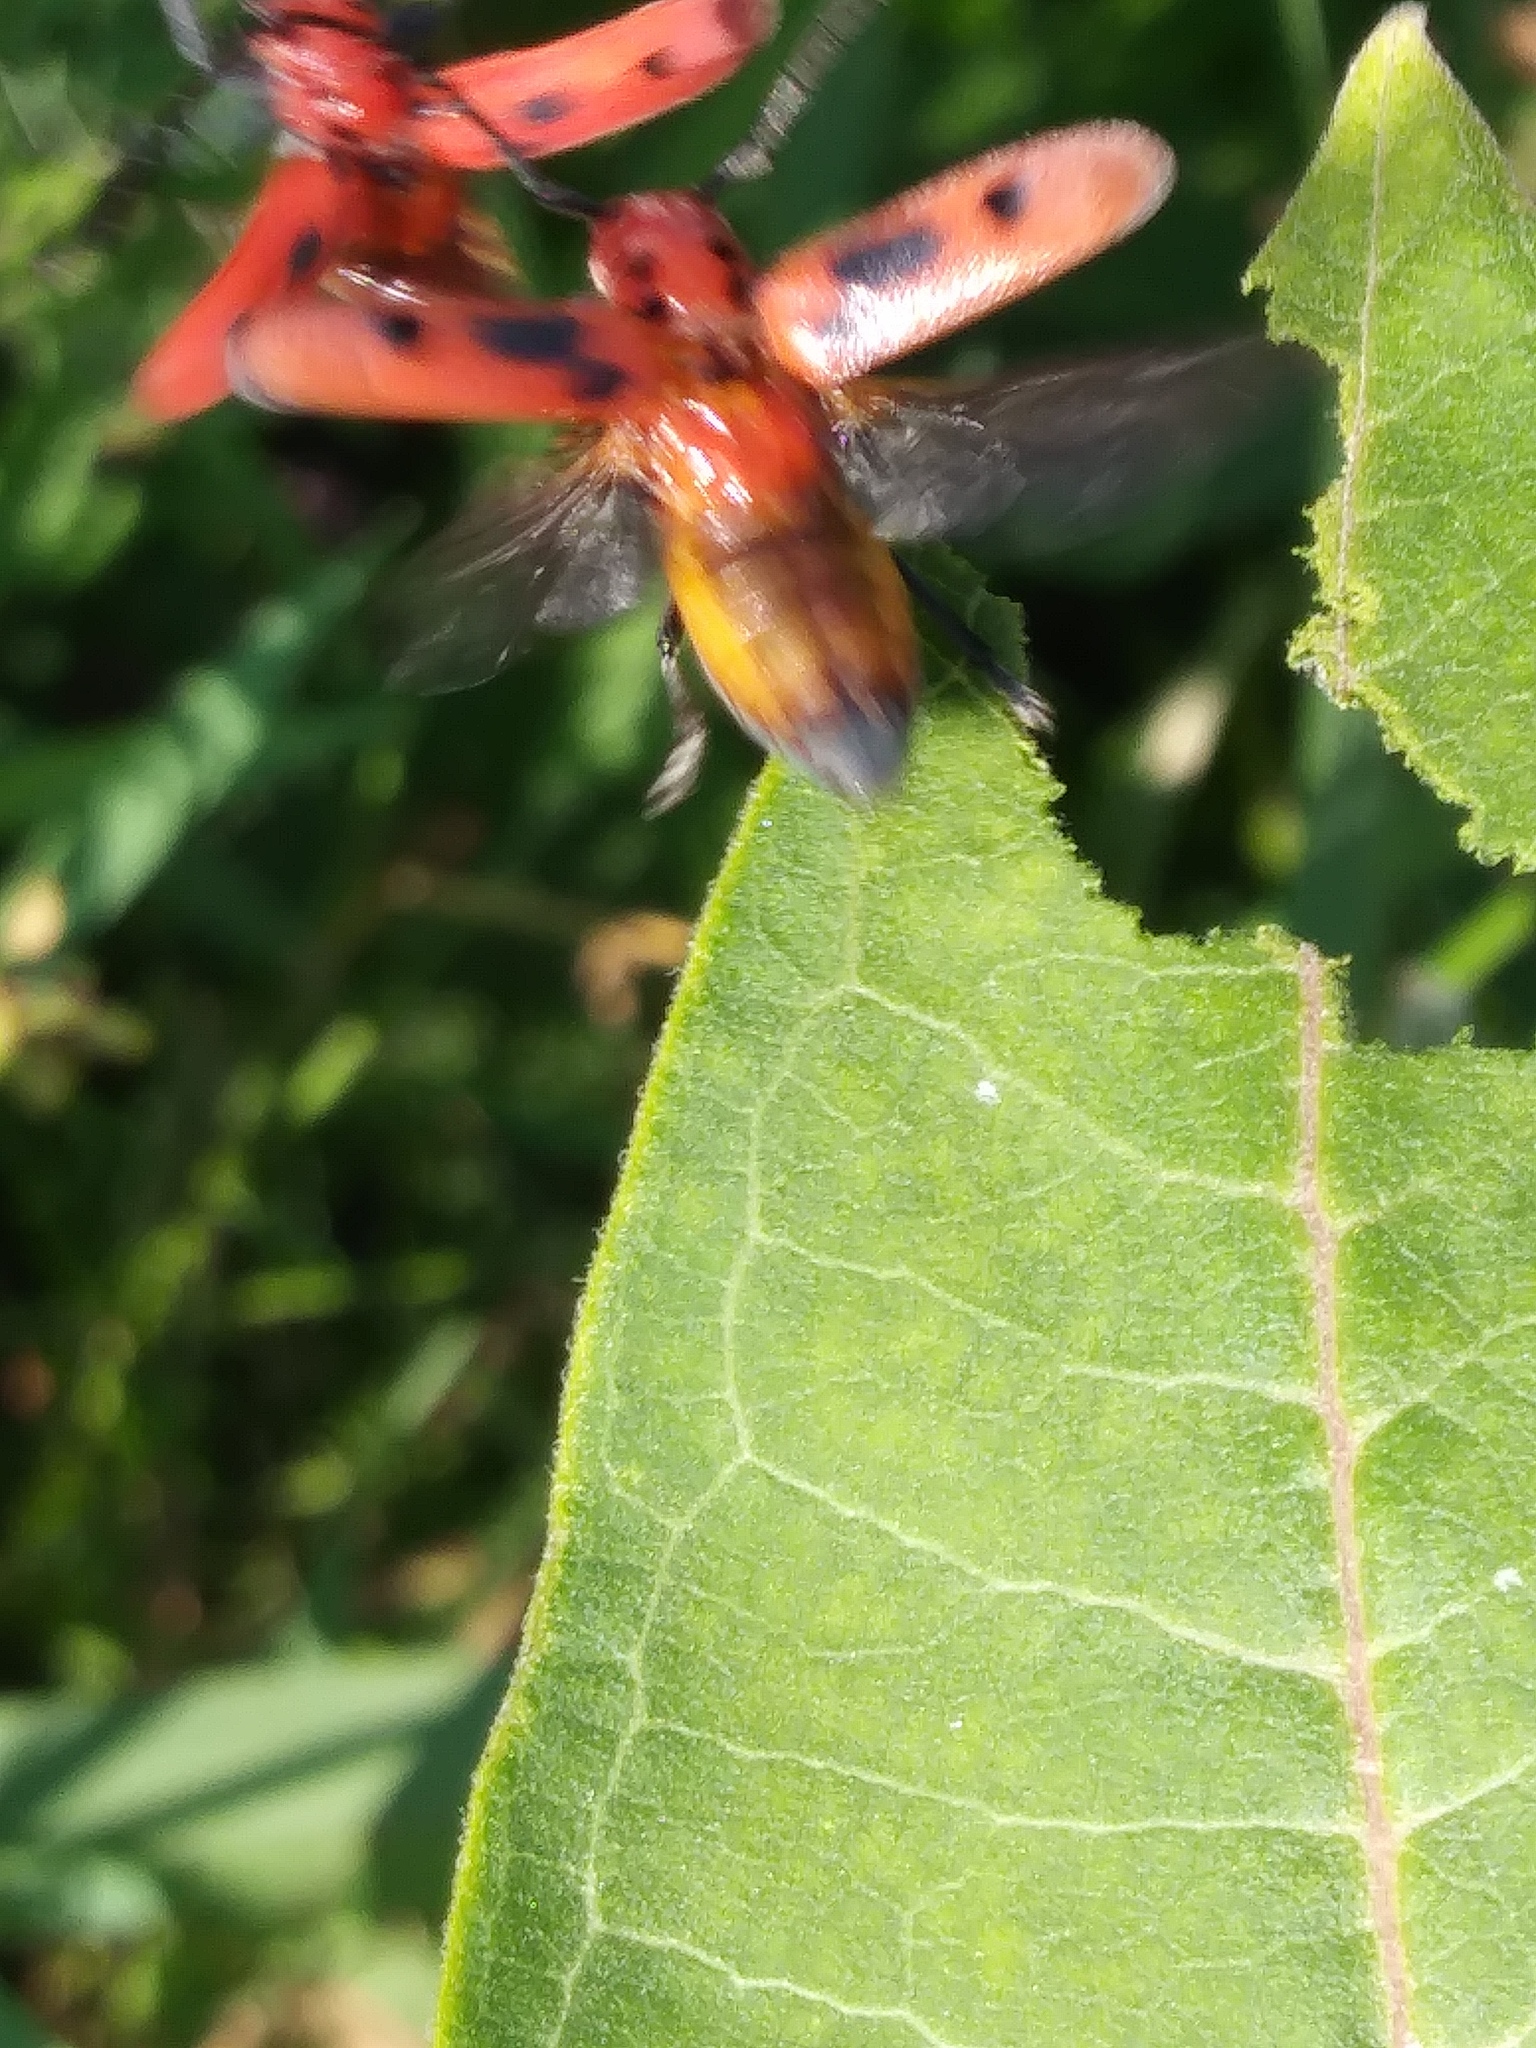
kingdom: Animalia
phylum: Arthropoda
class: Insecta
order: Coleoptera
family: Cerambycidae
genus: Tetraopes
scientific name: Tetraopes tetrophthalmus
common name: Red milkweed beetle
